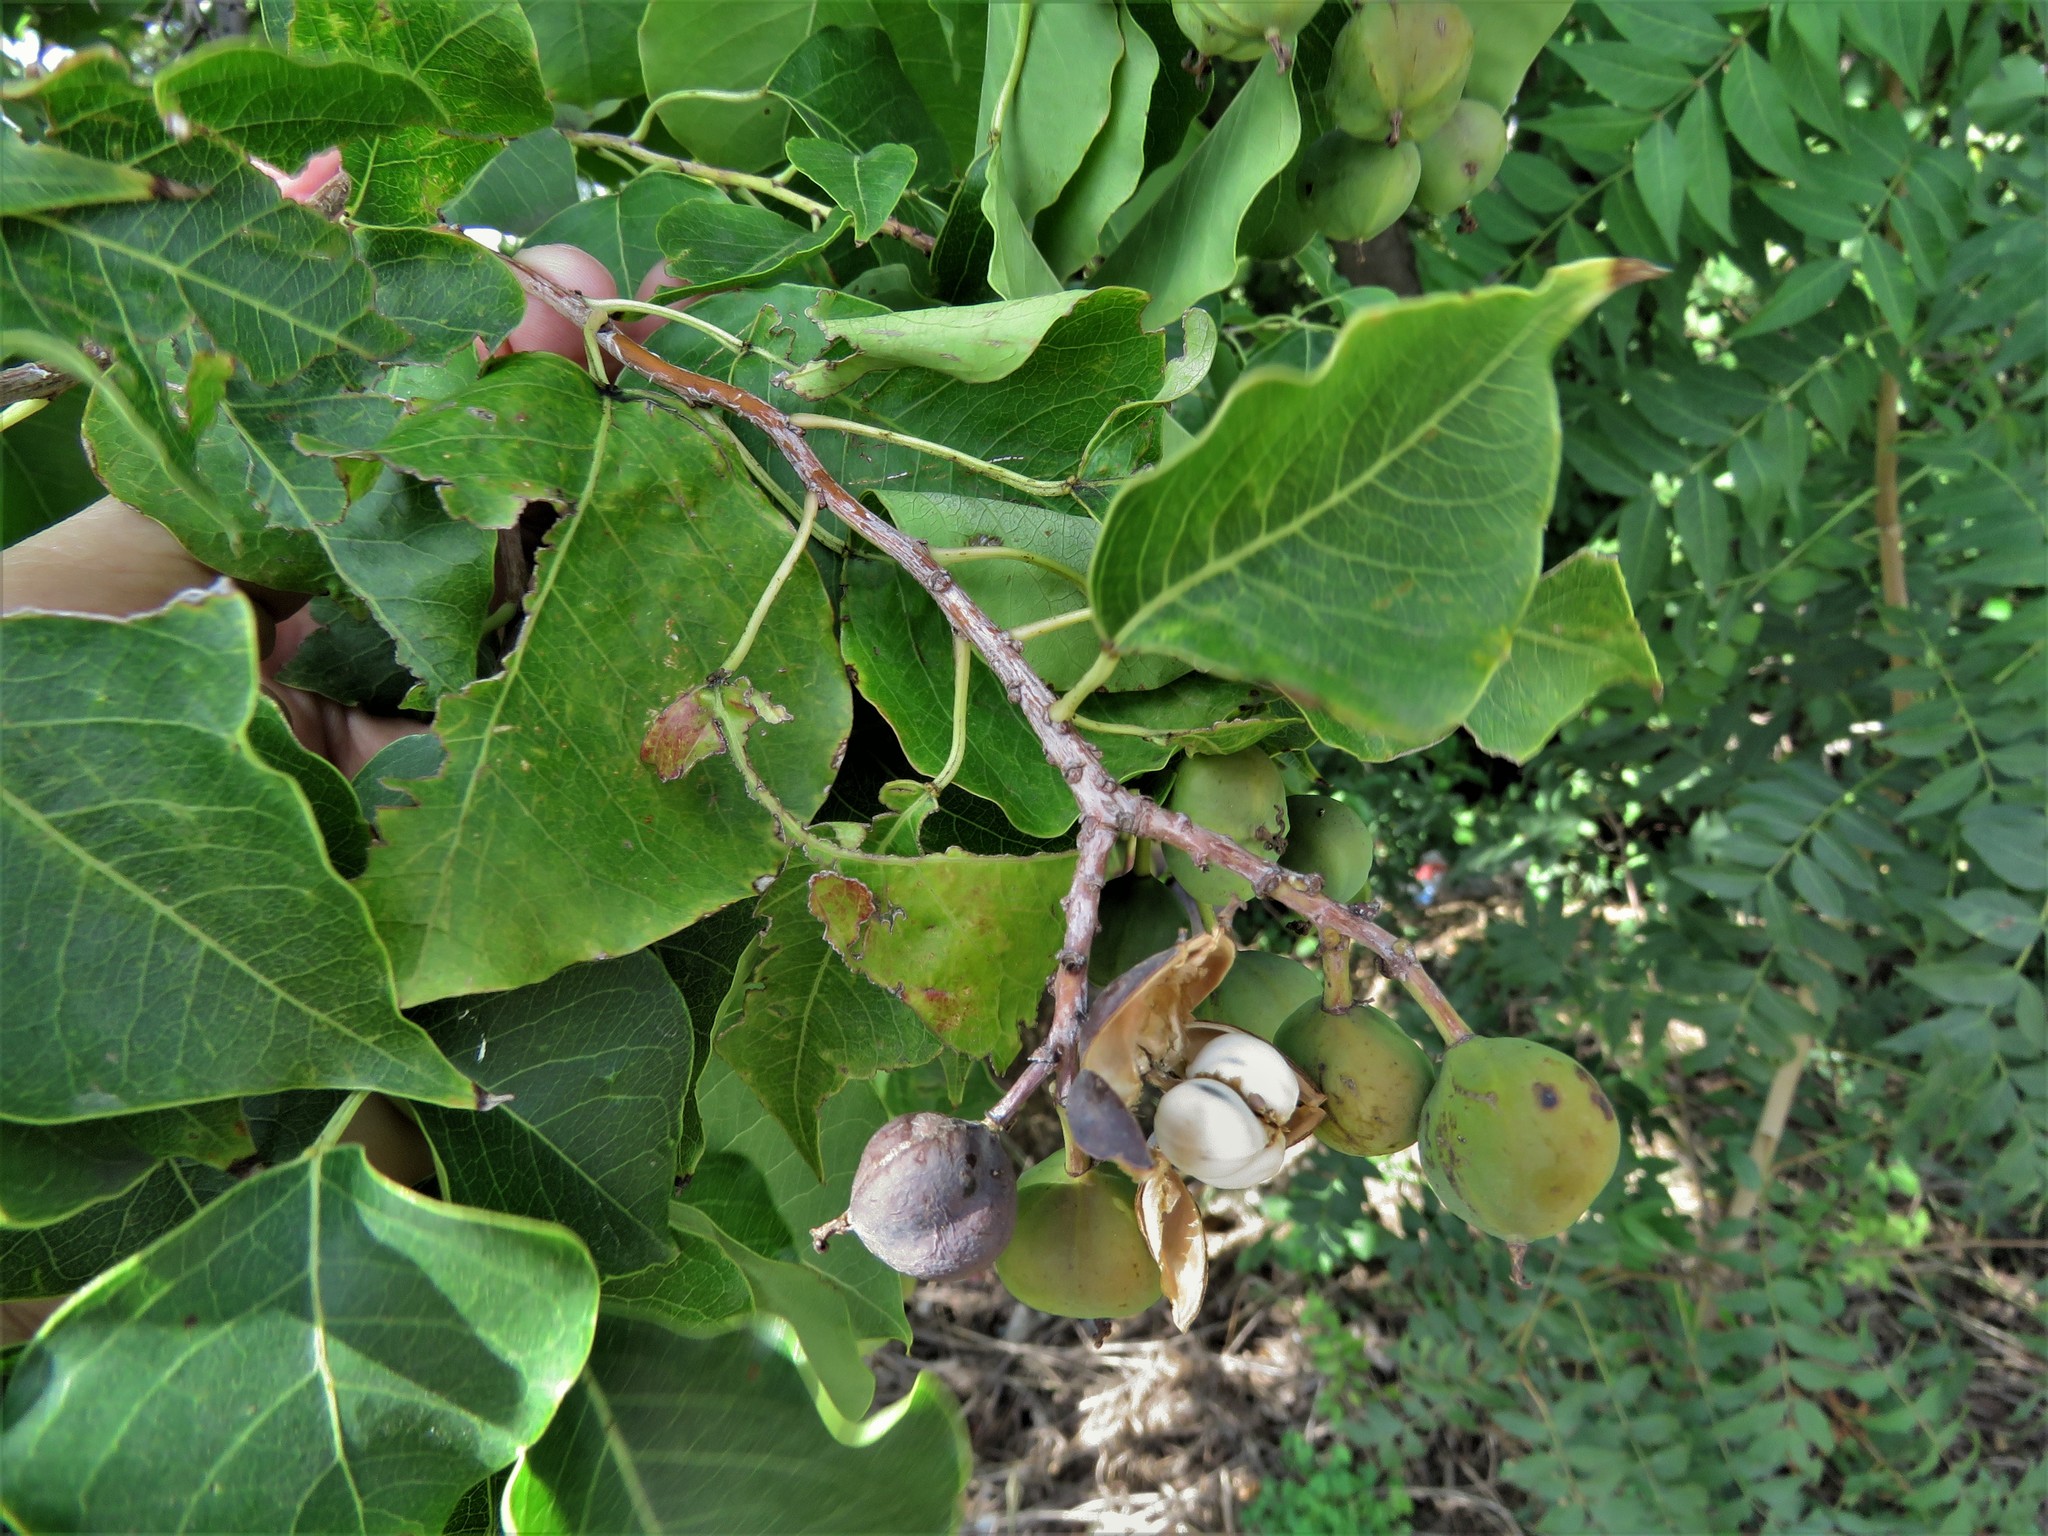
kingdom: Plantae
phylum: Tracheophyta
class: Magnoliopsida
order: Malpighiales
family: Euphorbiaceae
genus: Triadica
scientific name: Triadica sebifera
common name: Chinese tallow
